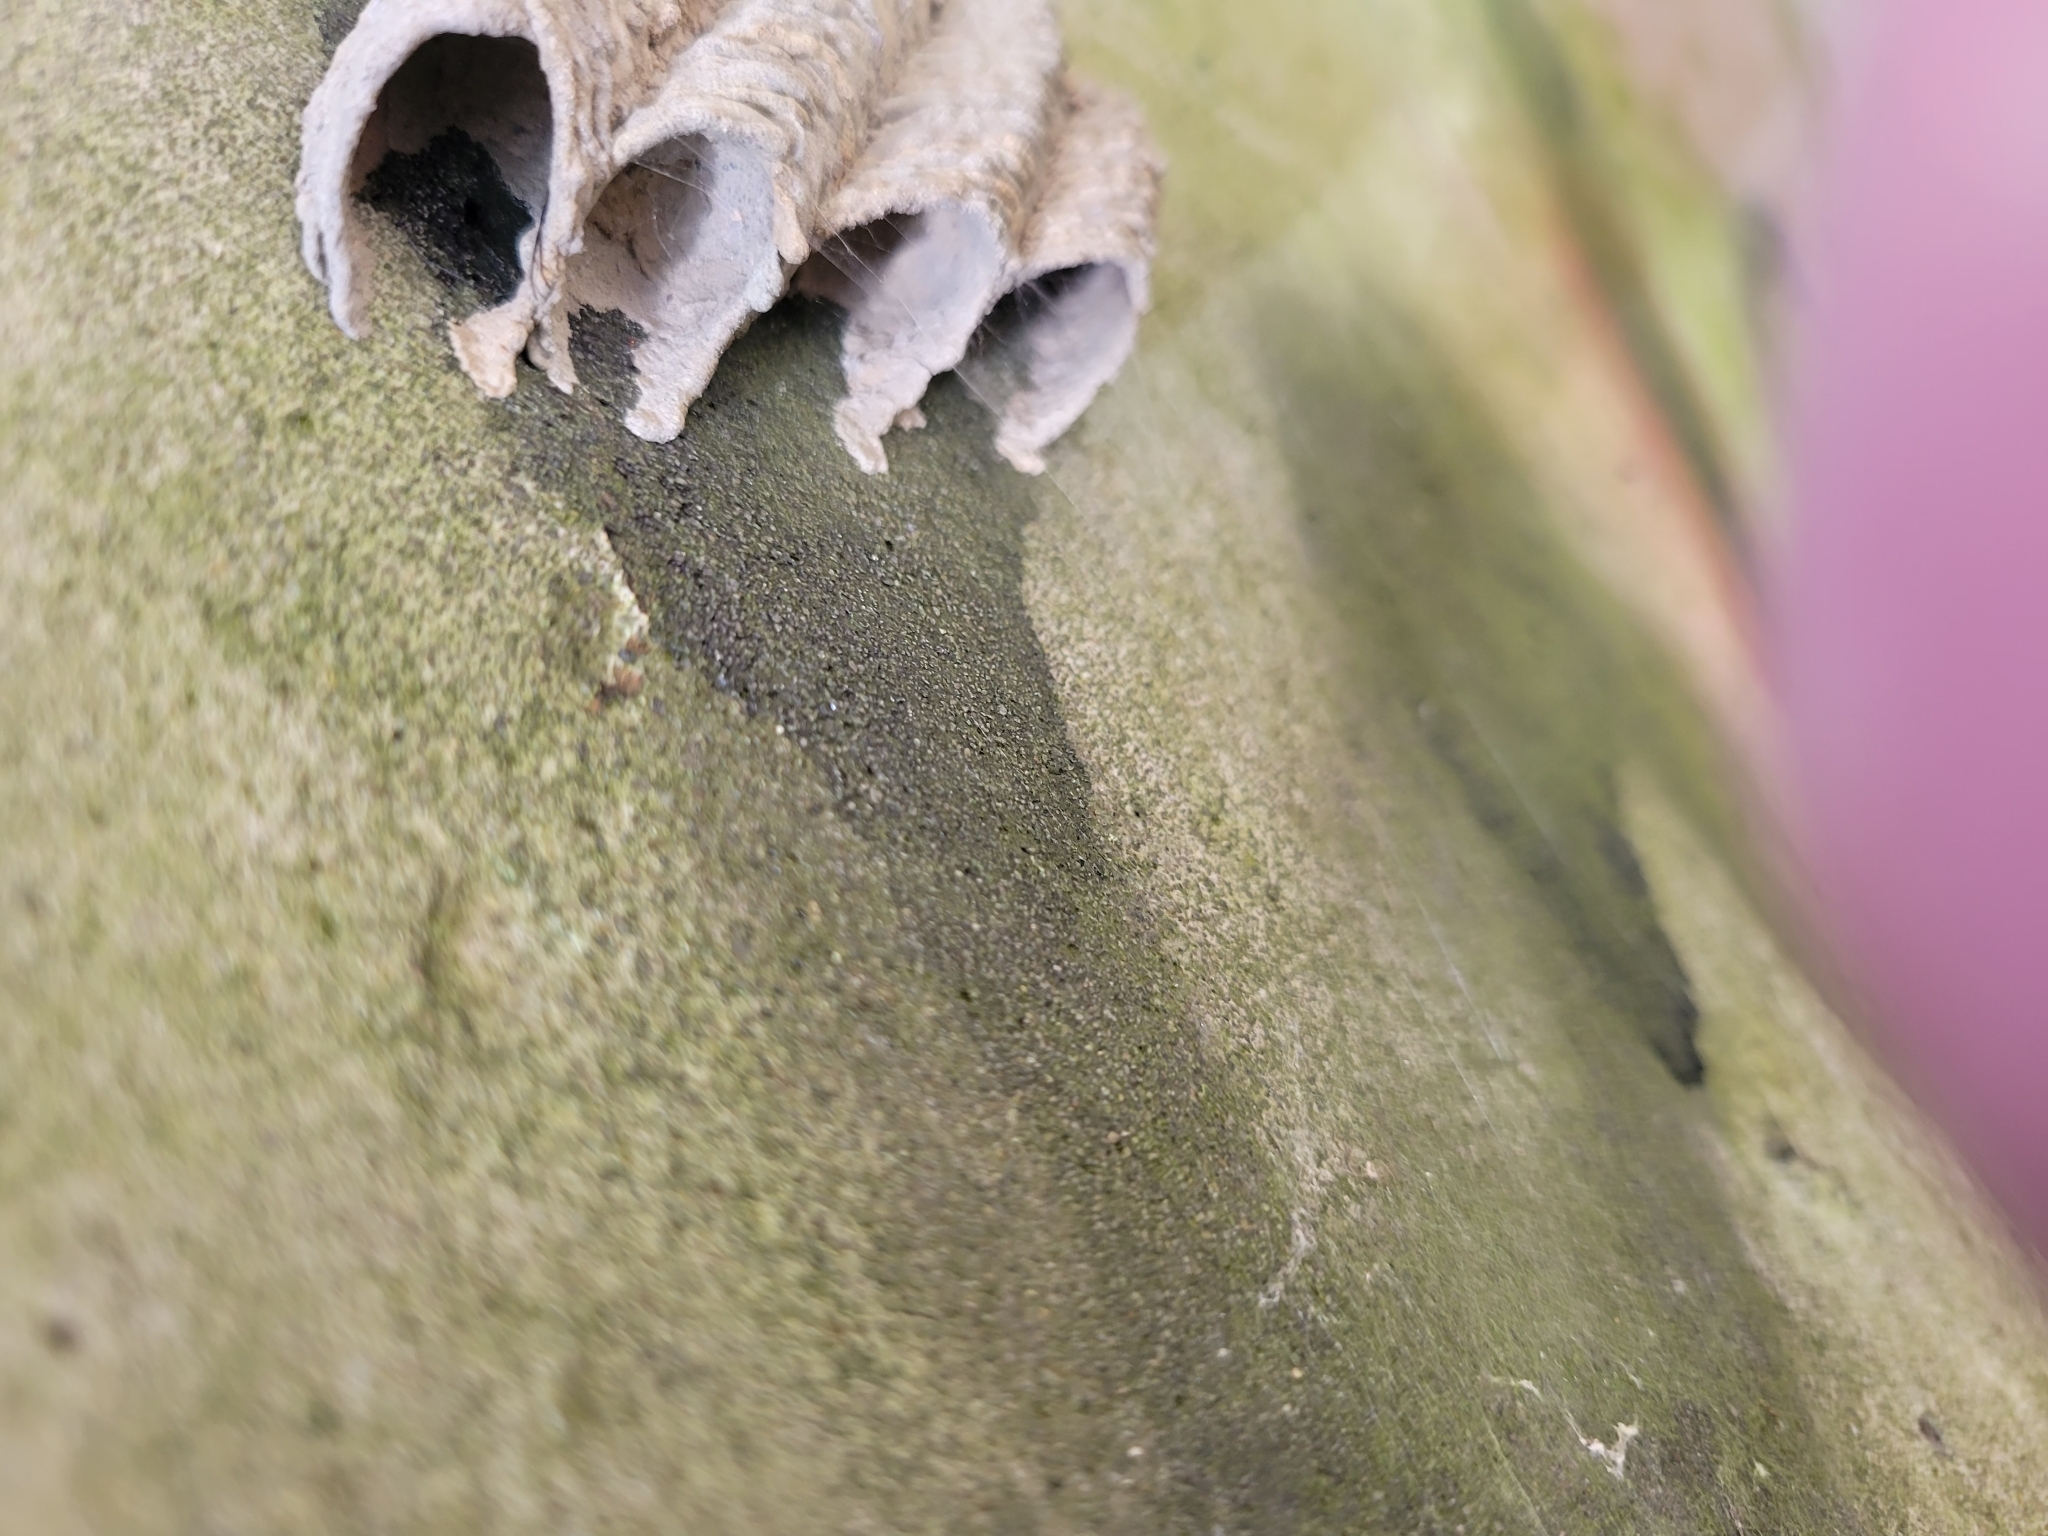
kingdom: Animalia
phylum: Arthropoda
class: Insecta
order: Hymenoptera
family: Crabronidae
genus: Trypoxylon
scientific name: Trypoxylon politum
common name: Organ-pipe mud-dauber wasp
